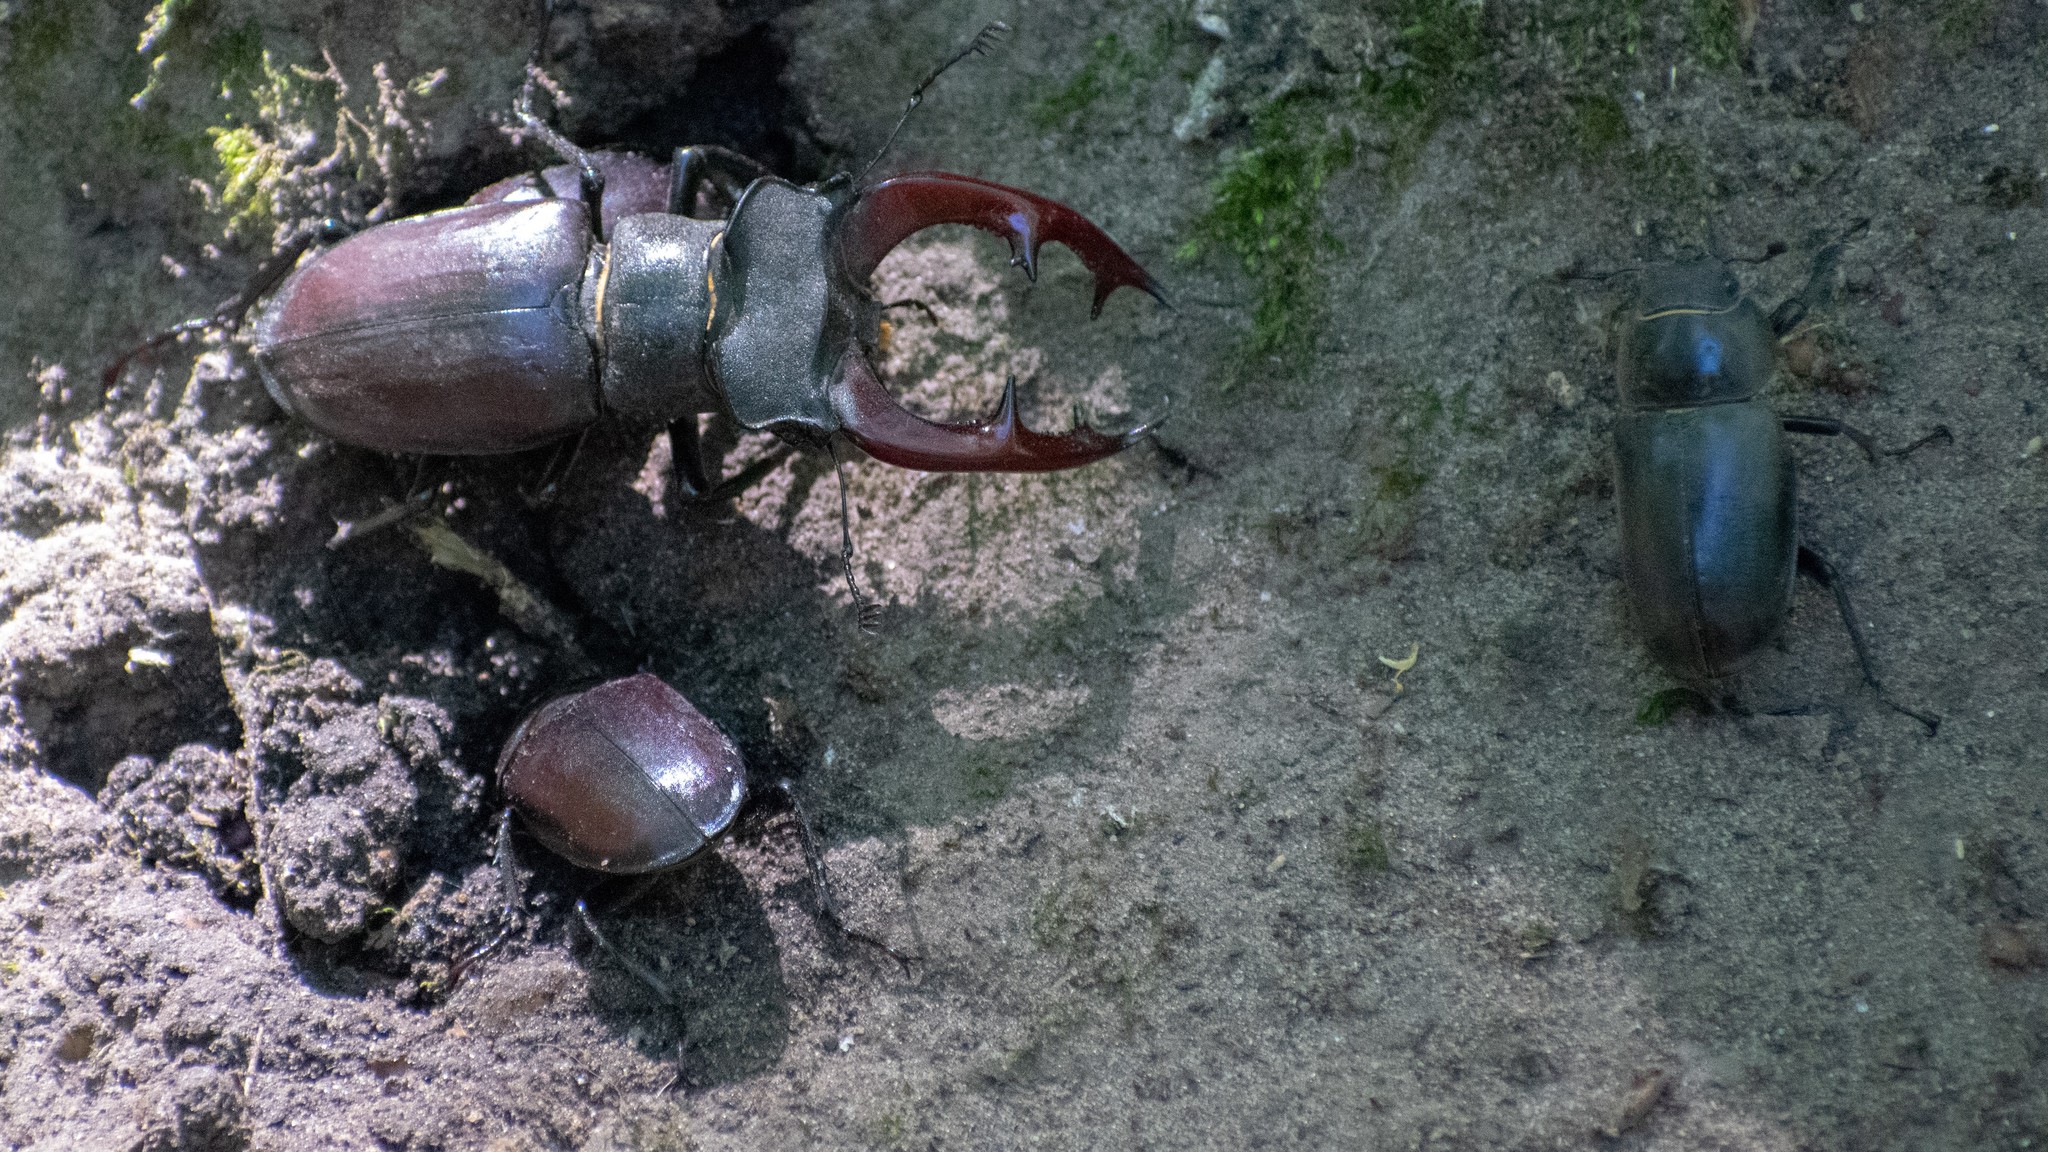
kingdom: Animalia
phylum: Arthropoda
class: Insecta
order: Coleoptera
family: Lucanidae
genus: Lucanus
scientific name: Lucanus cervus
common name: Stag beetle
